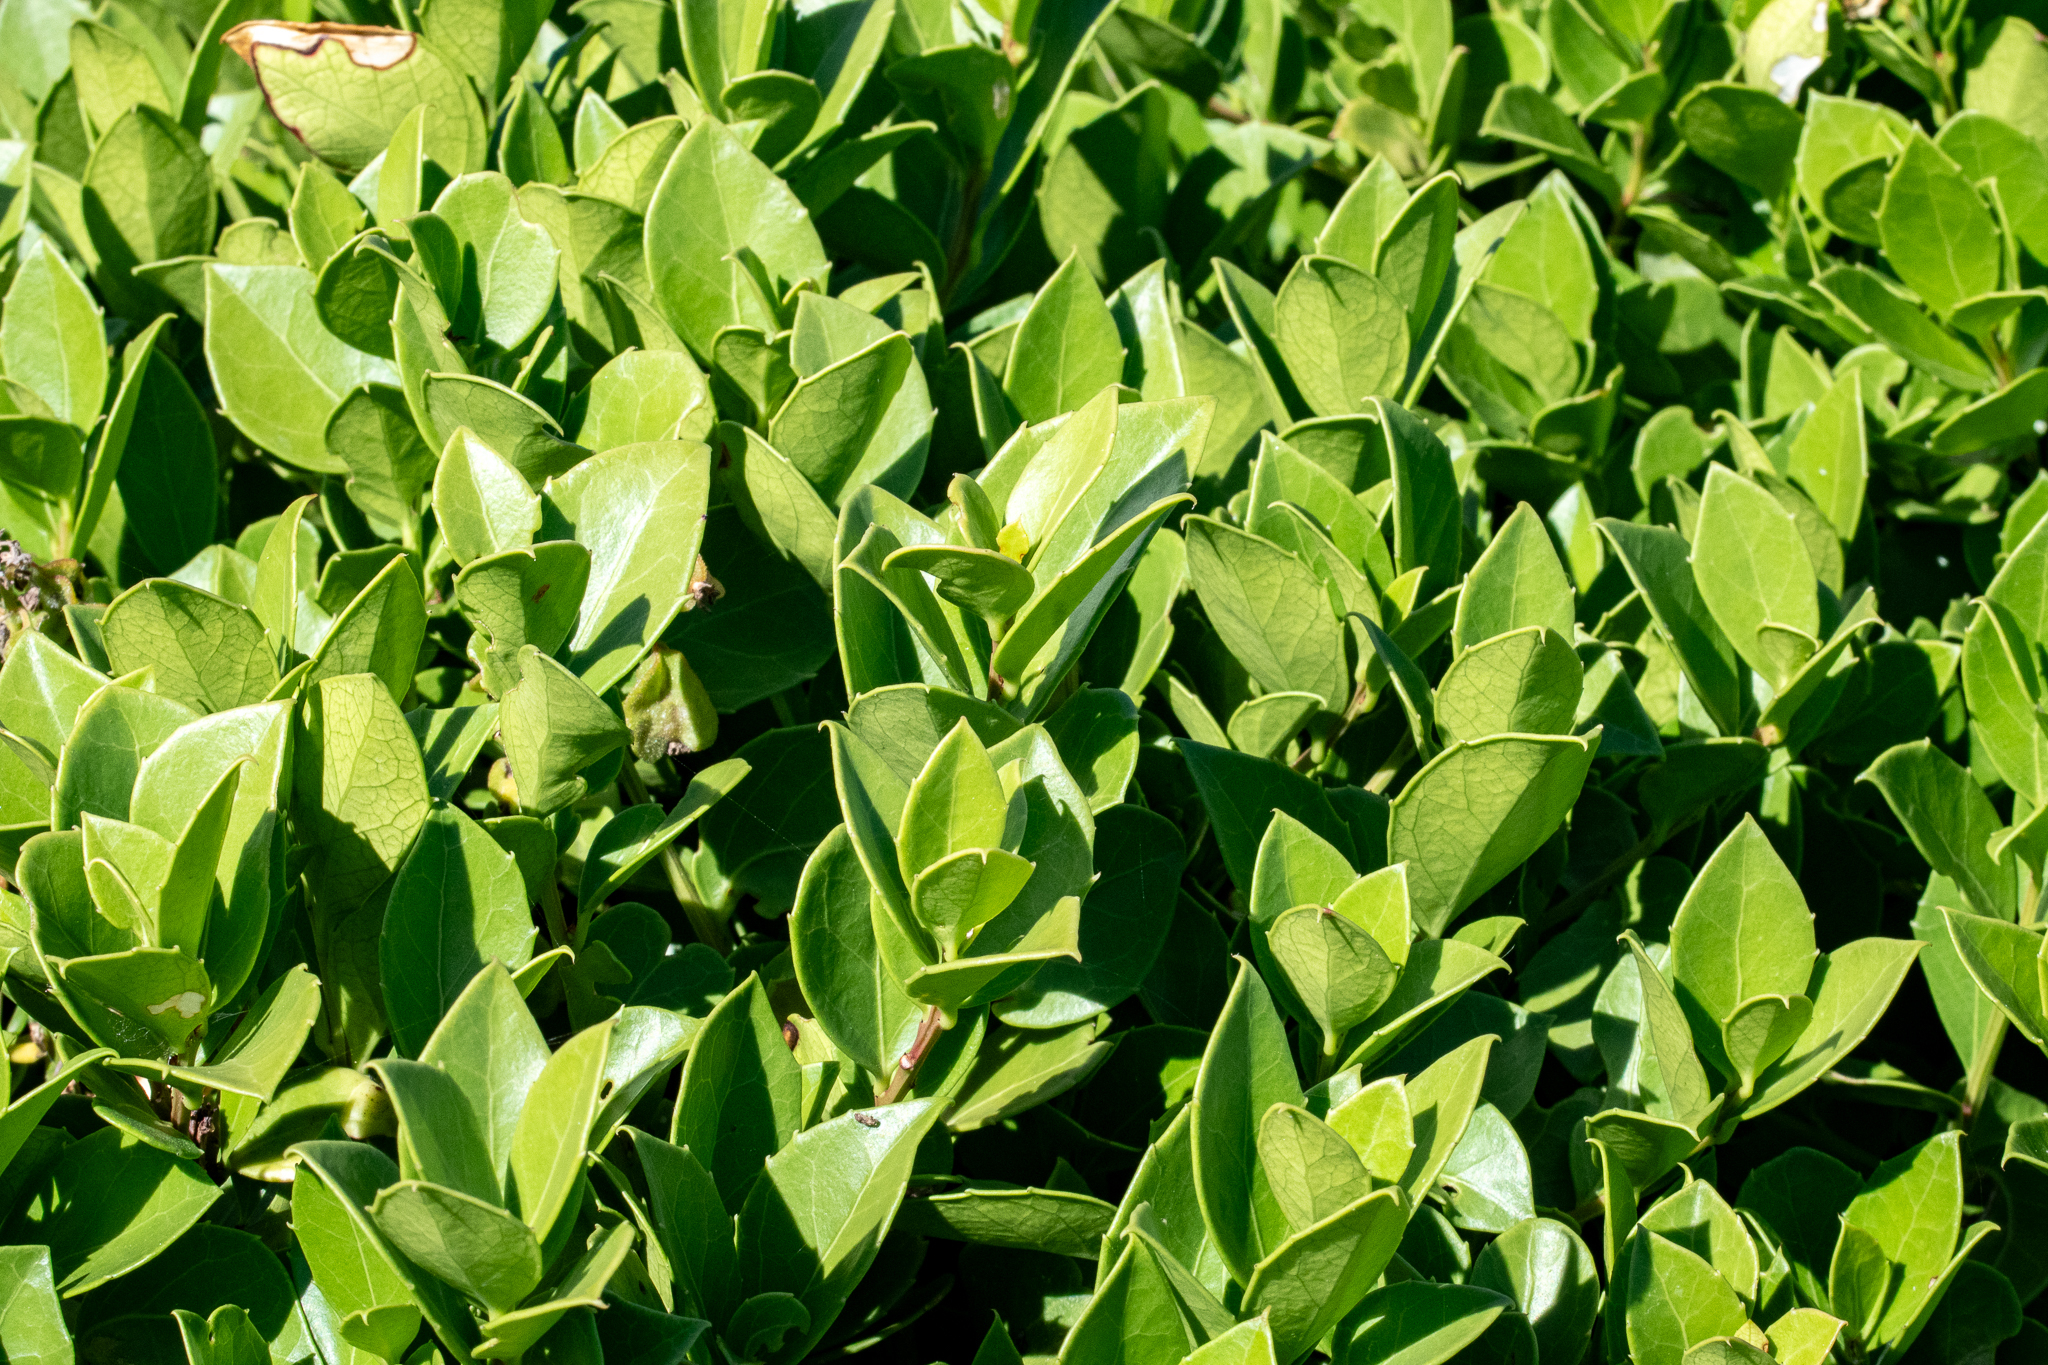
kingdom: Plantae
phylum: Tracheophyta
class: Magnoliopsida
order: Celastrales
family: Celastraceae
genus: Gymnosporia
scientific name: Gymnosporia procumbens
